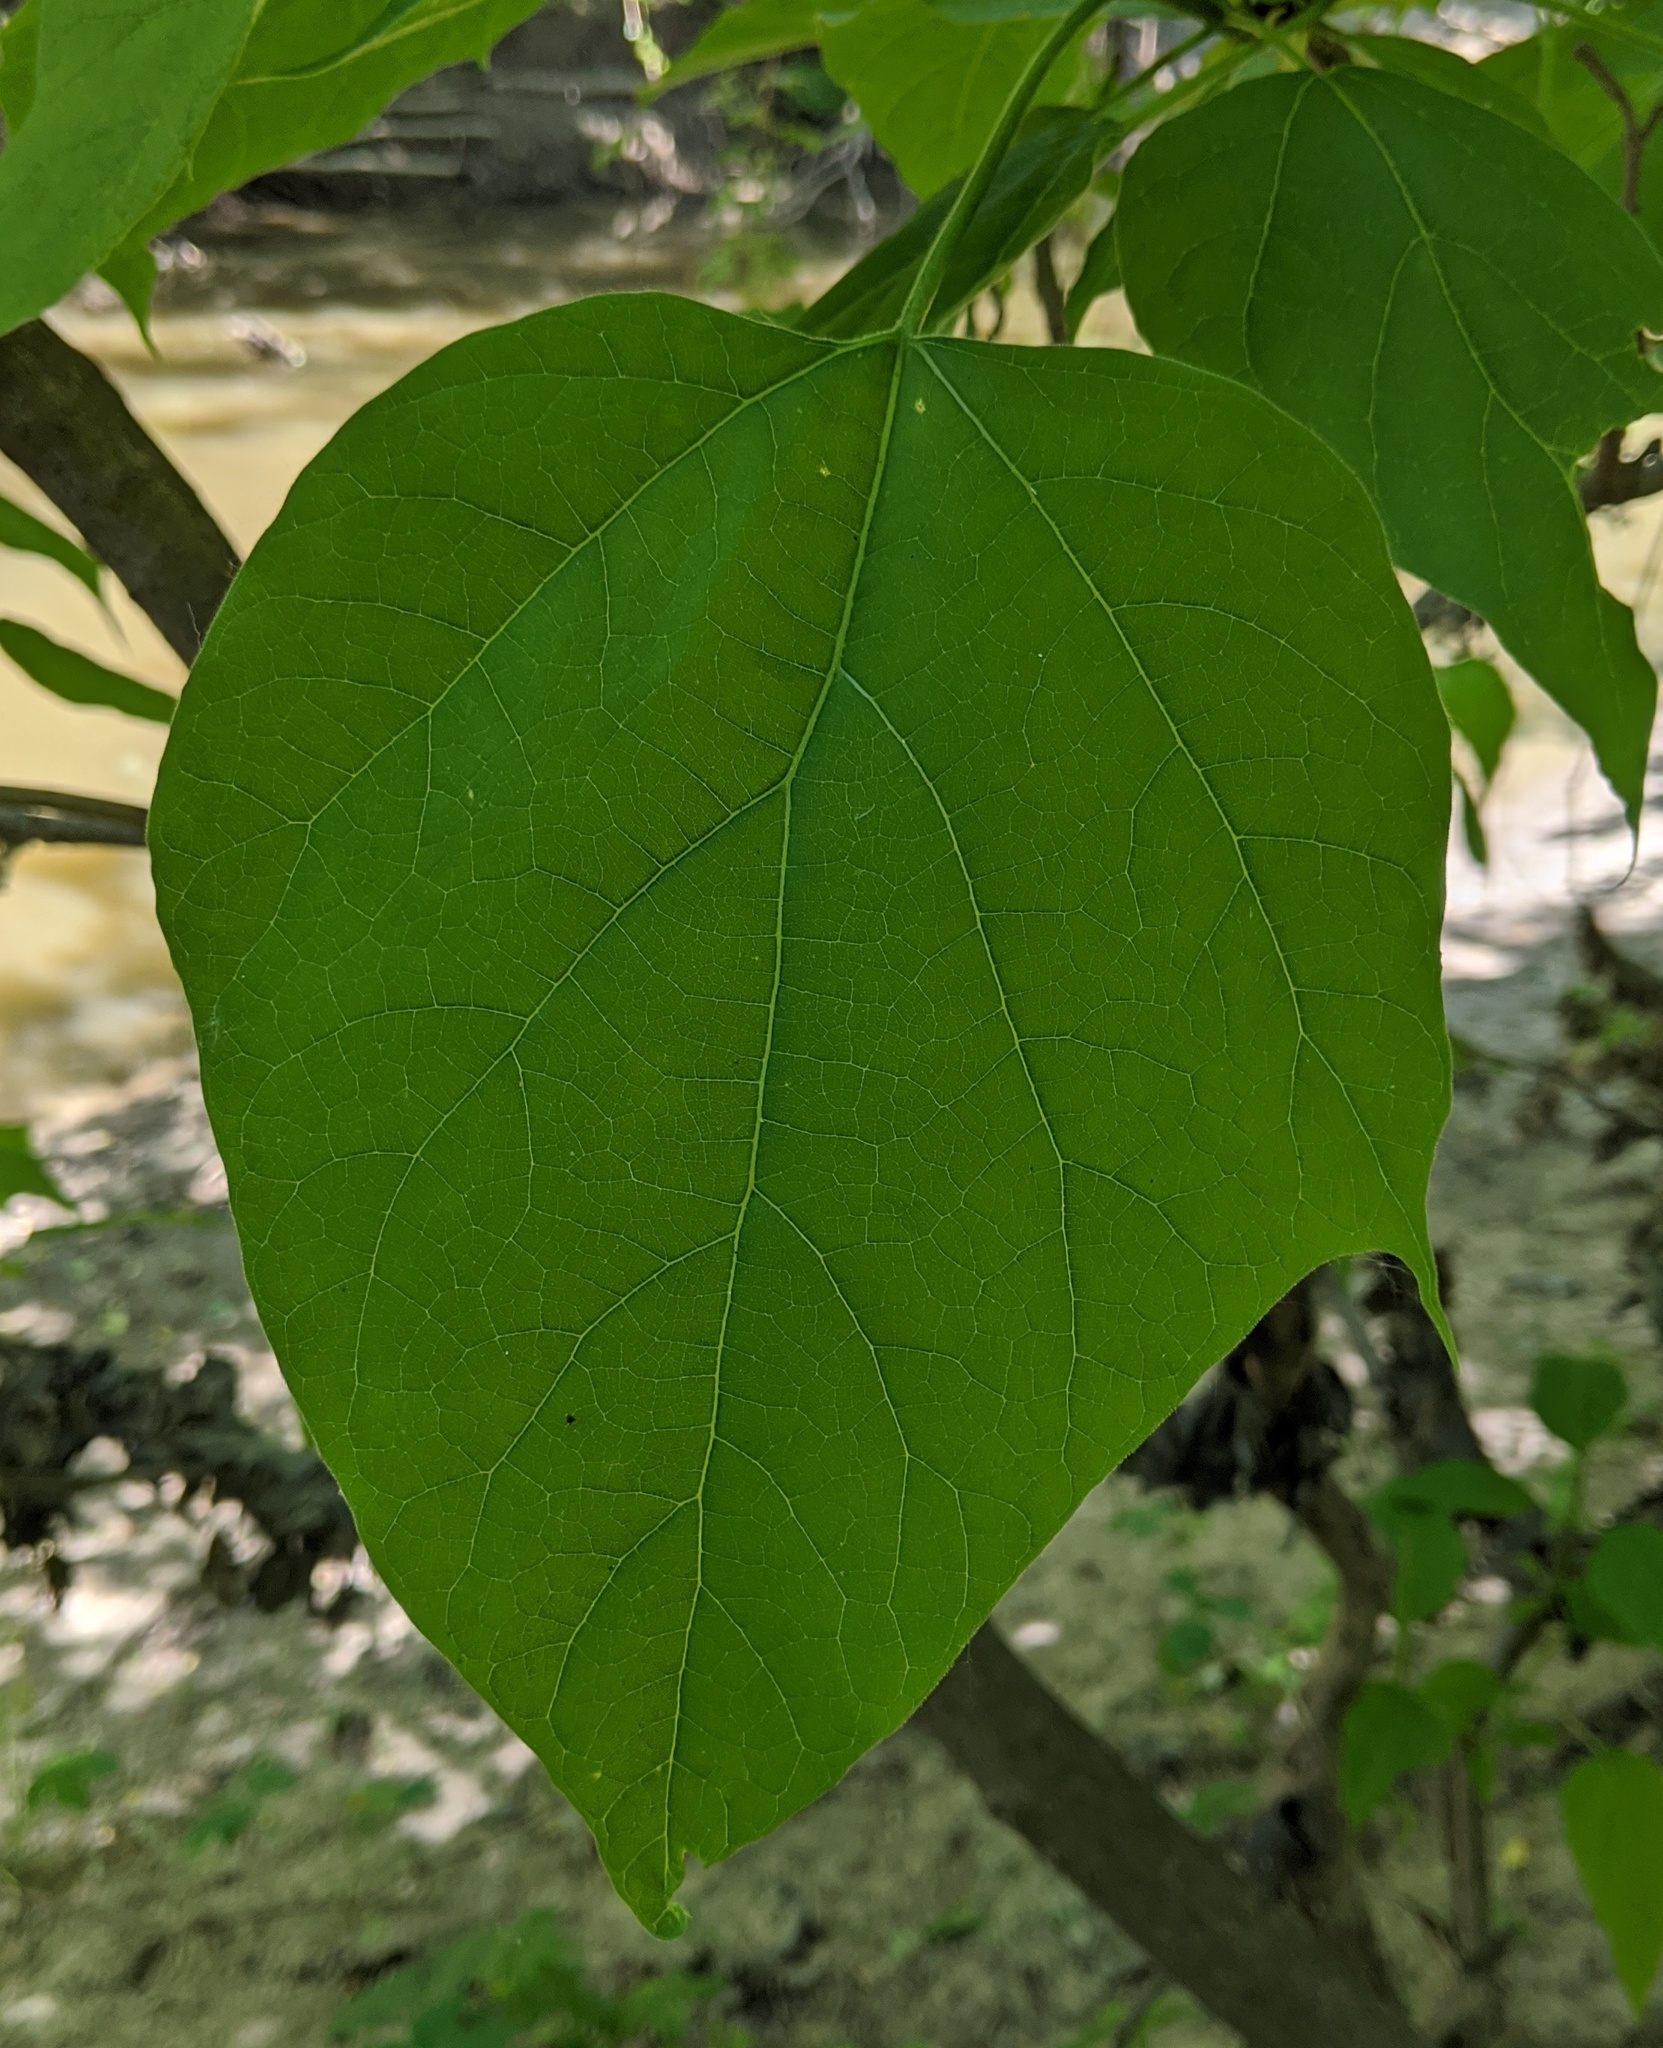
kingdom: Plantae
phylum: Tracheophyta
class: Magnoliopsida
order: Lamiales
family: Bignoniaceae
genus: Catalpa
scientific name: Catalpa speciosa
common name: Northern catalpa
